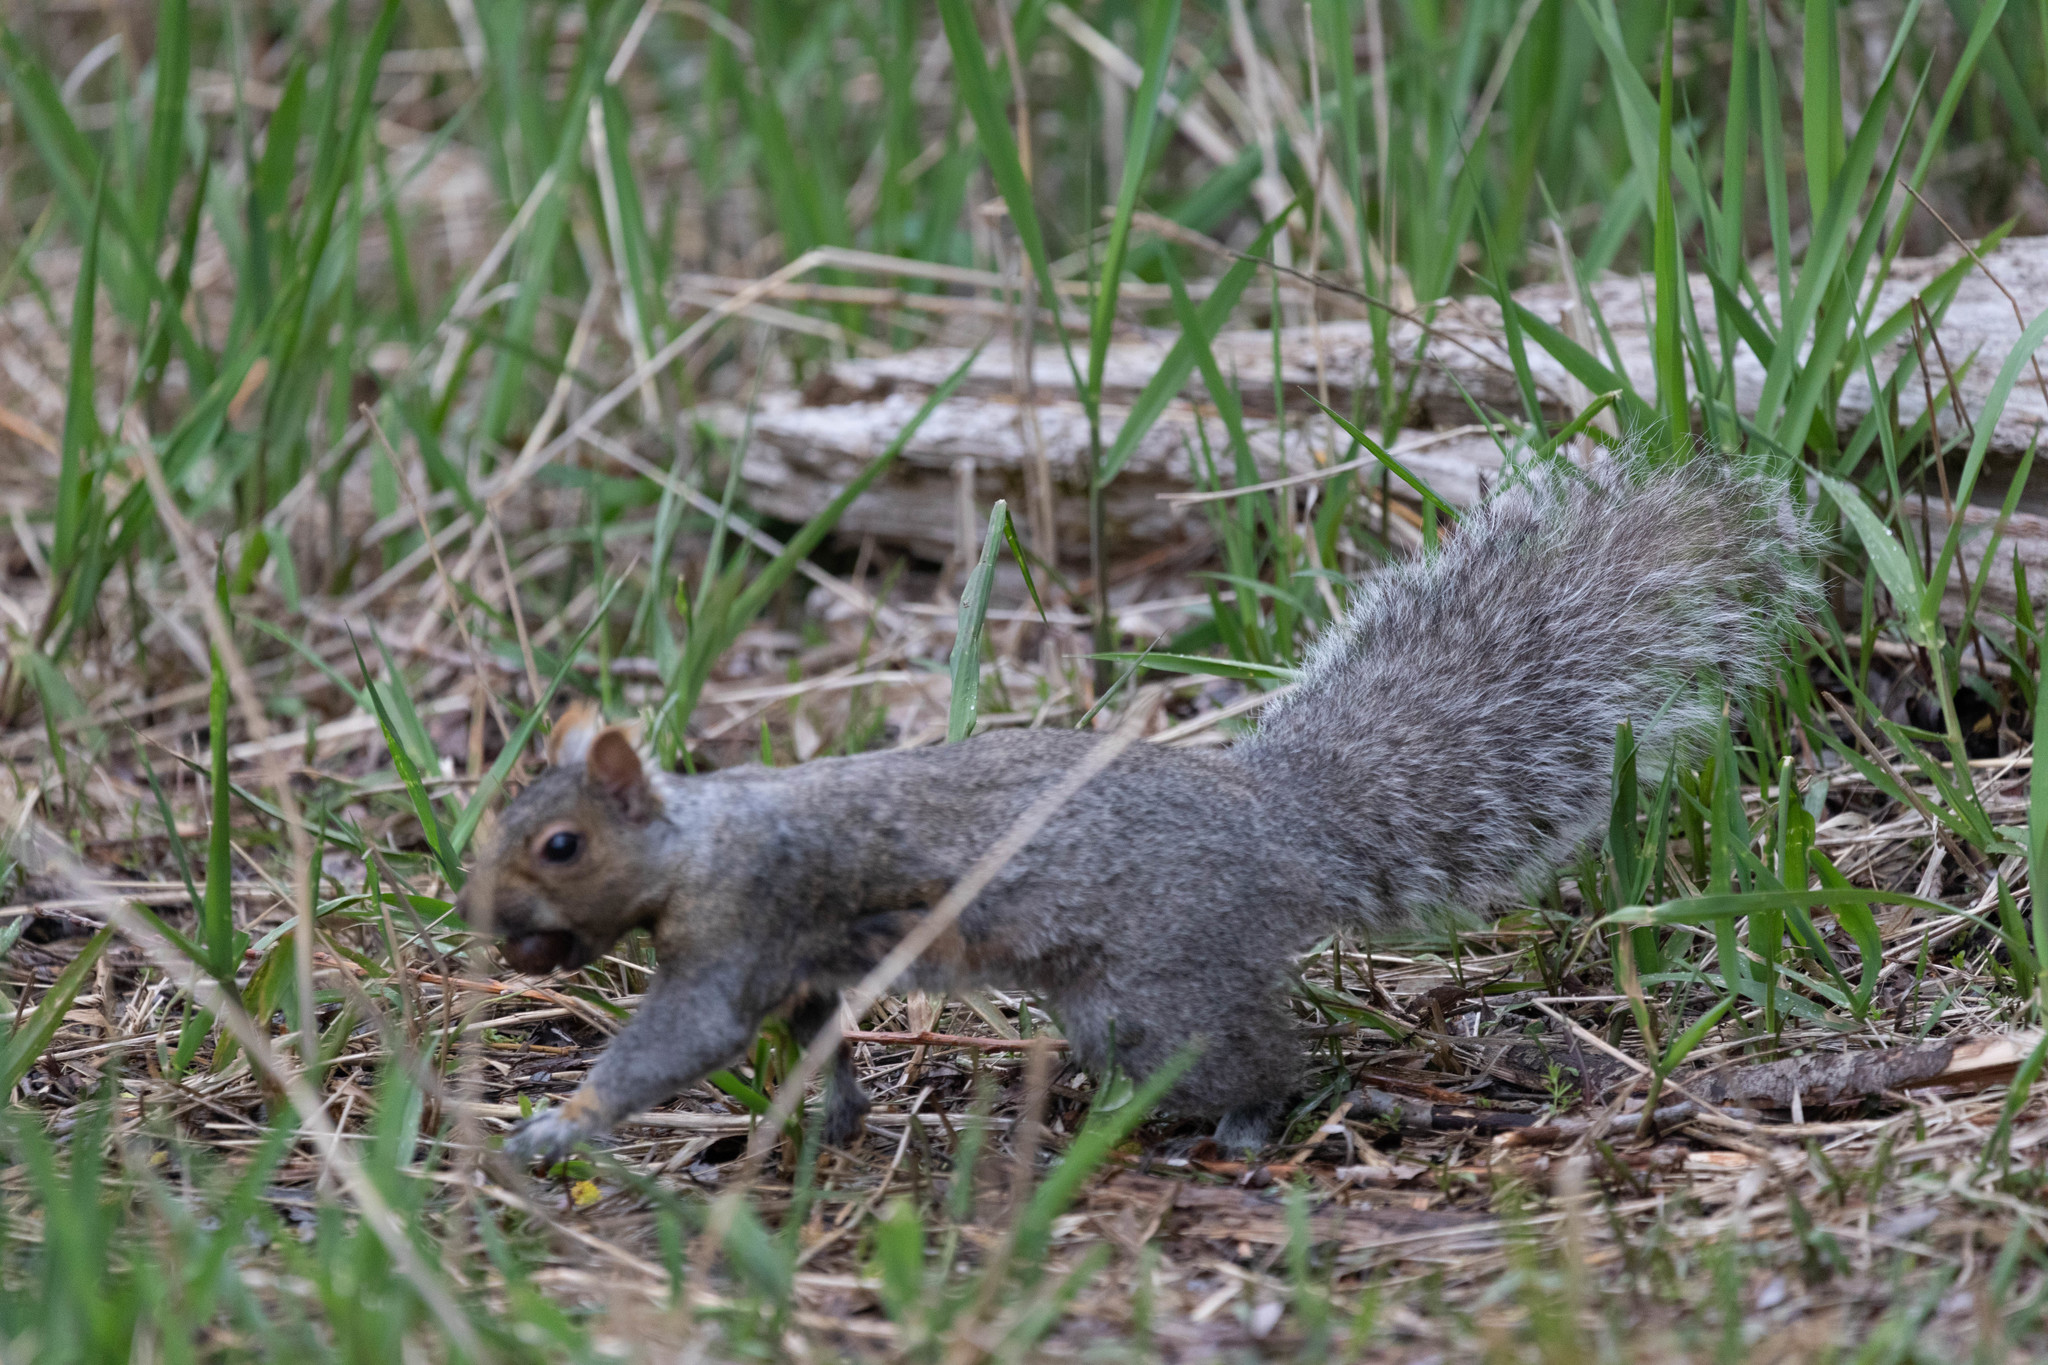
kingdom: Animalia
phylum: Chordata
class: Mammalia
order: Rodentia
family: Sciuridae
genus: Sciurus
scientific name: Sciurus carolinensis
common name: Eastern gray squirrel
